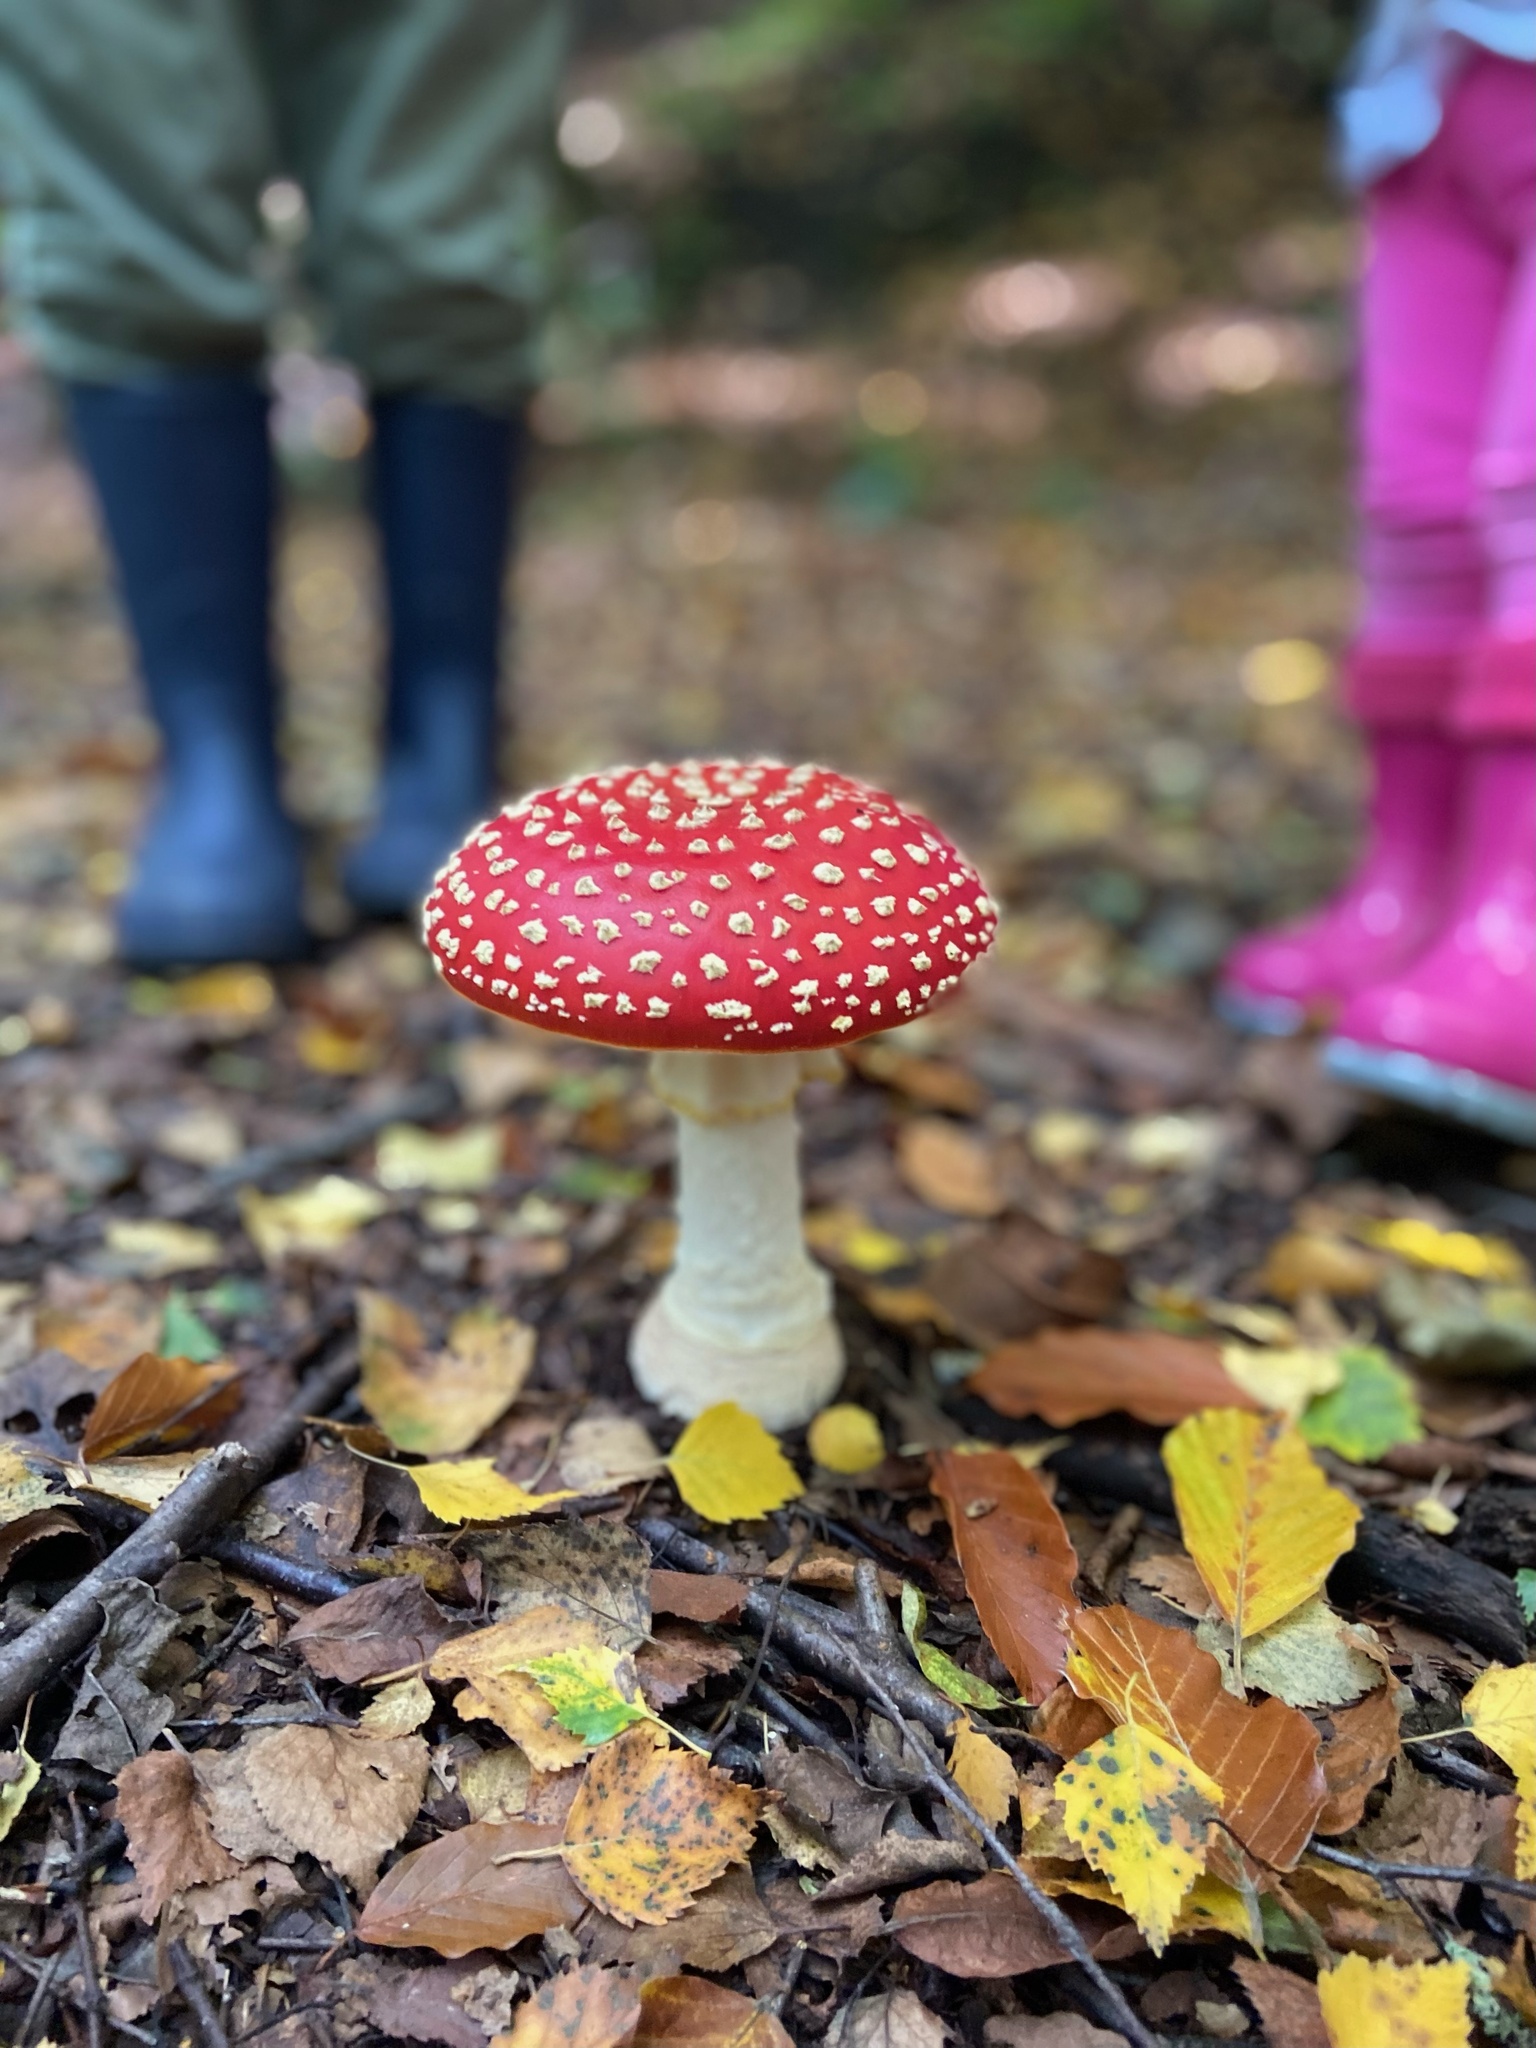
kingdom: Fungi
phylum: Basidiomycota
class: Agaricomycetes
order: Agaricales
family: Amanitaceae
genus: Amanita
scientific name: Amanita muscaria
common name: Fly agaric
